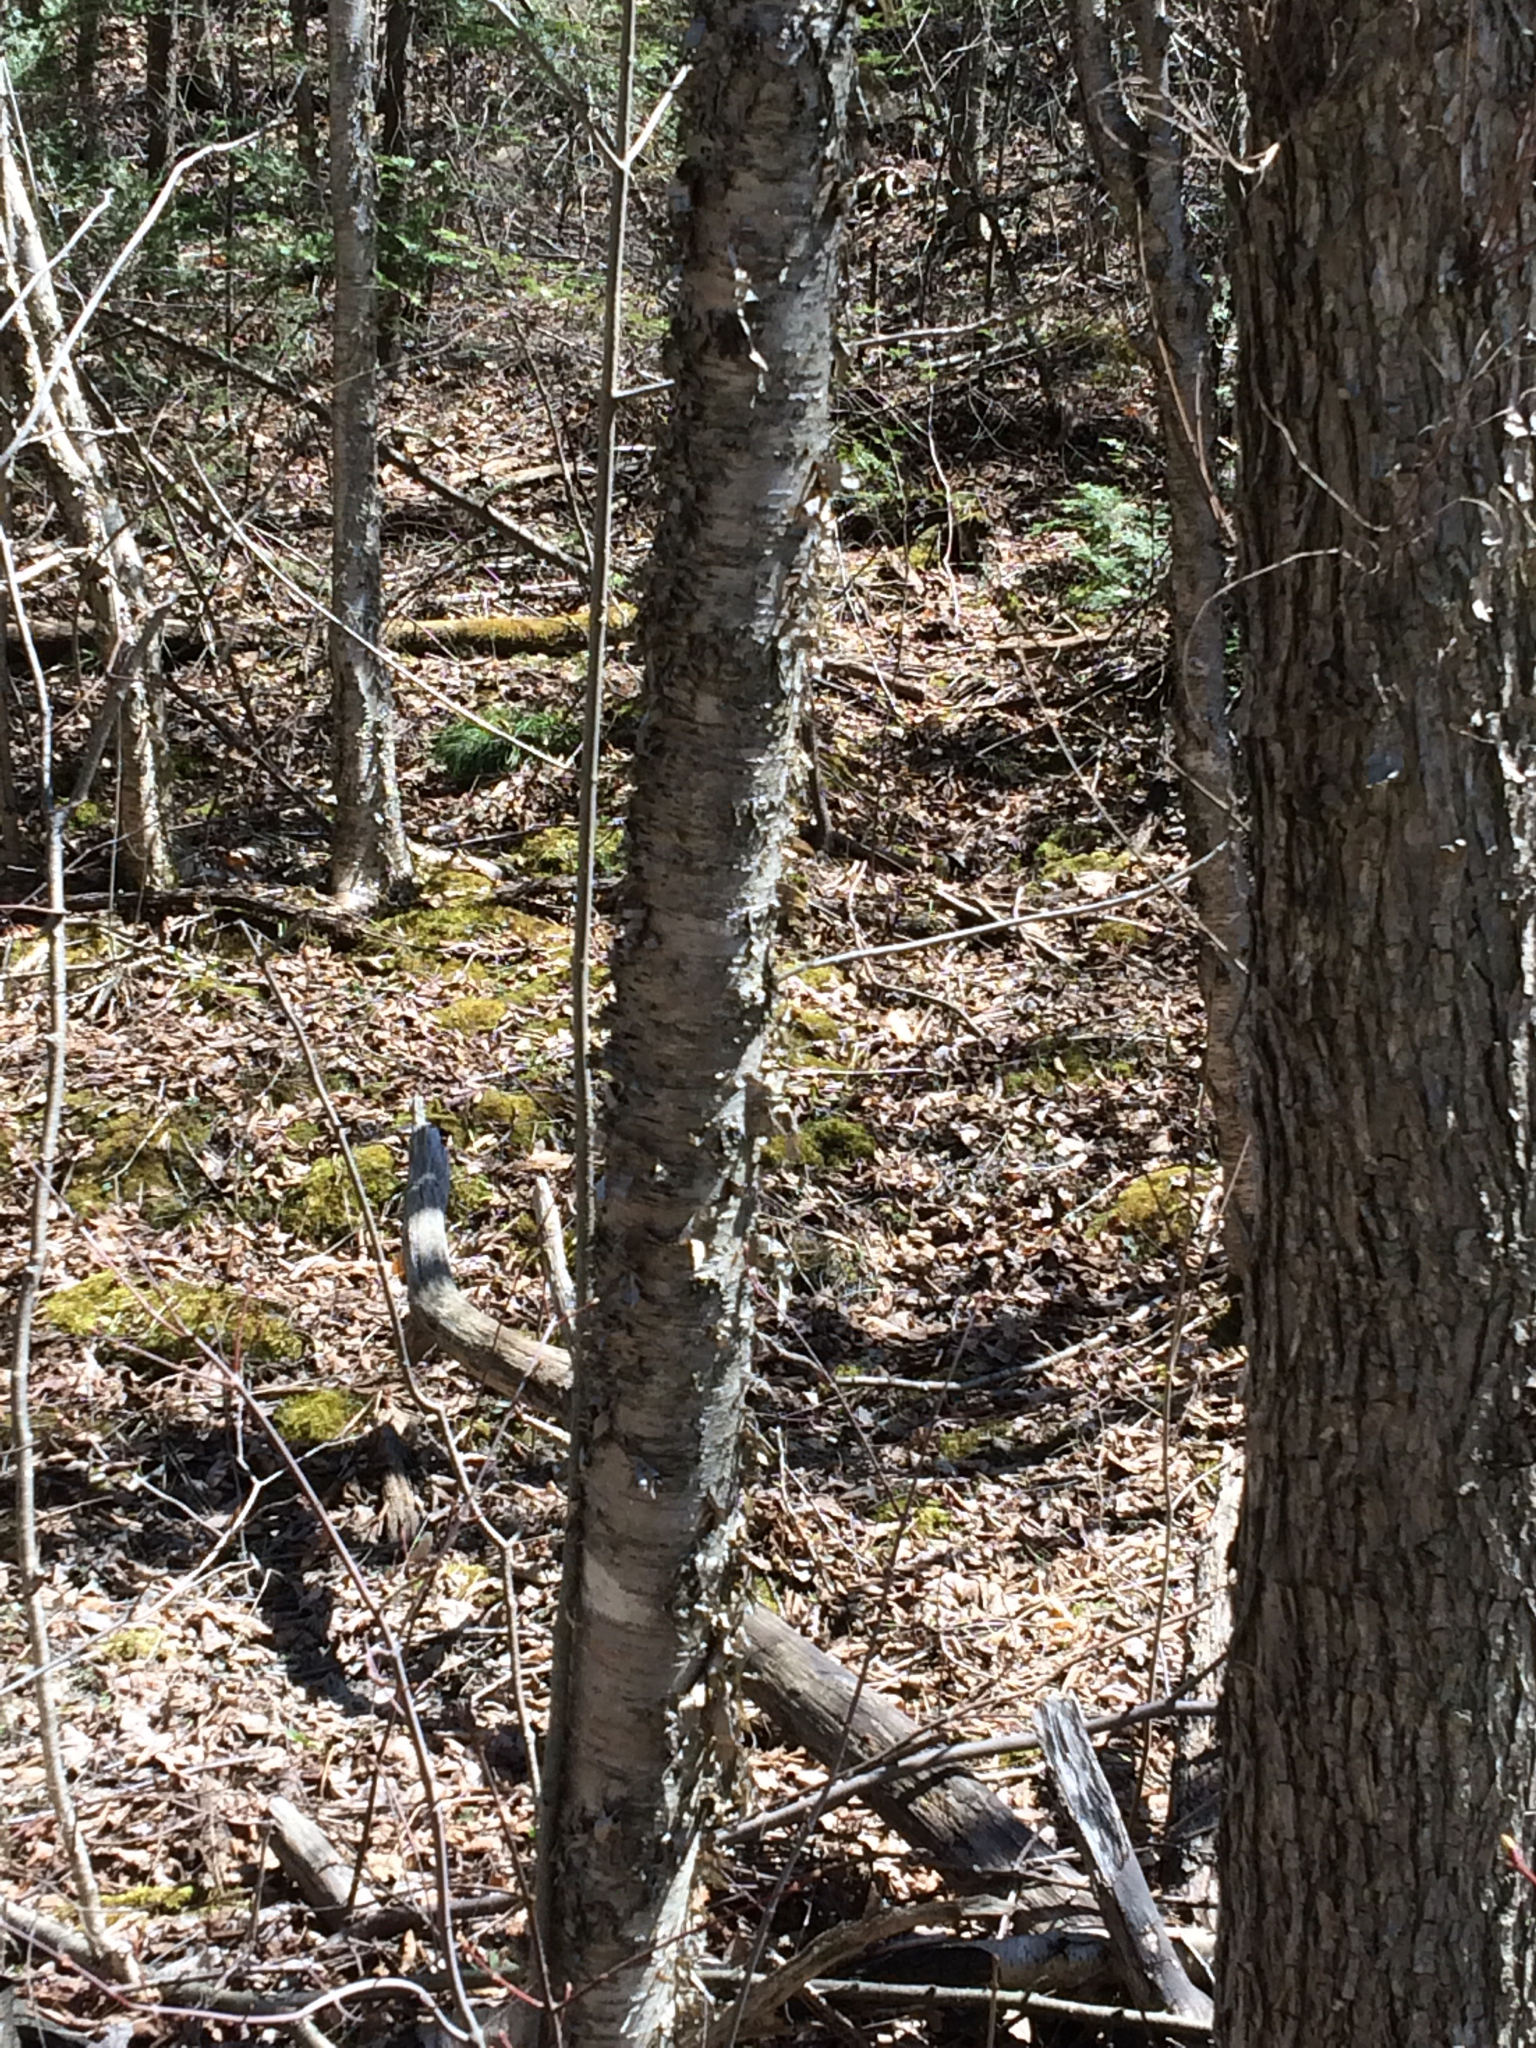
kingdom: Plantae
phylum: Tracheophyta
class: Magnoliopsida
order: Fagales
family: Betulaceae
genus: Betula
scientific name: Betula alleghaniensis
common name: Yellow birch
